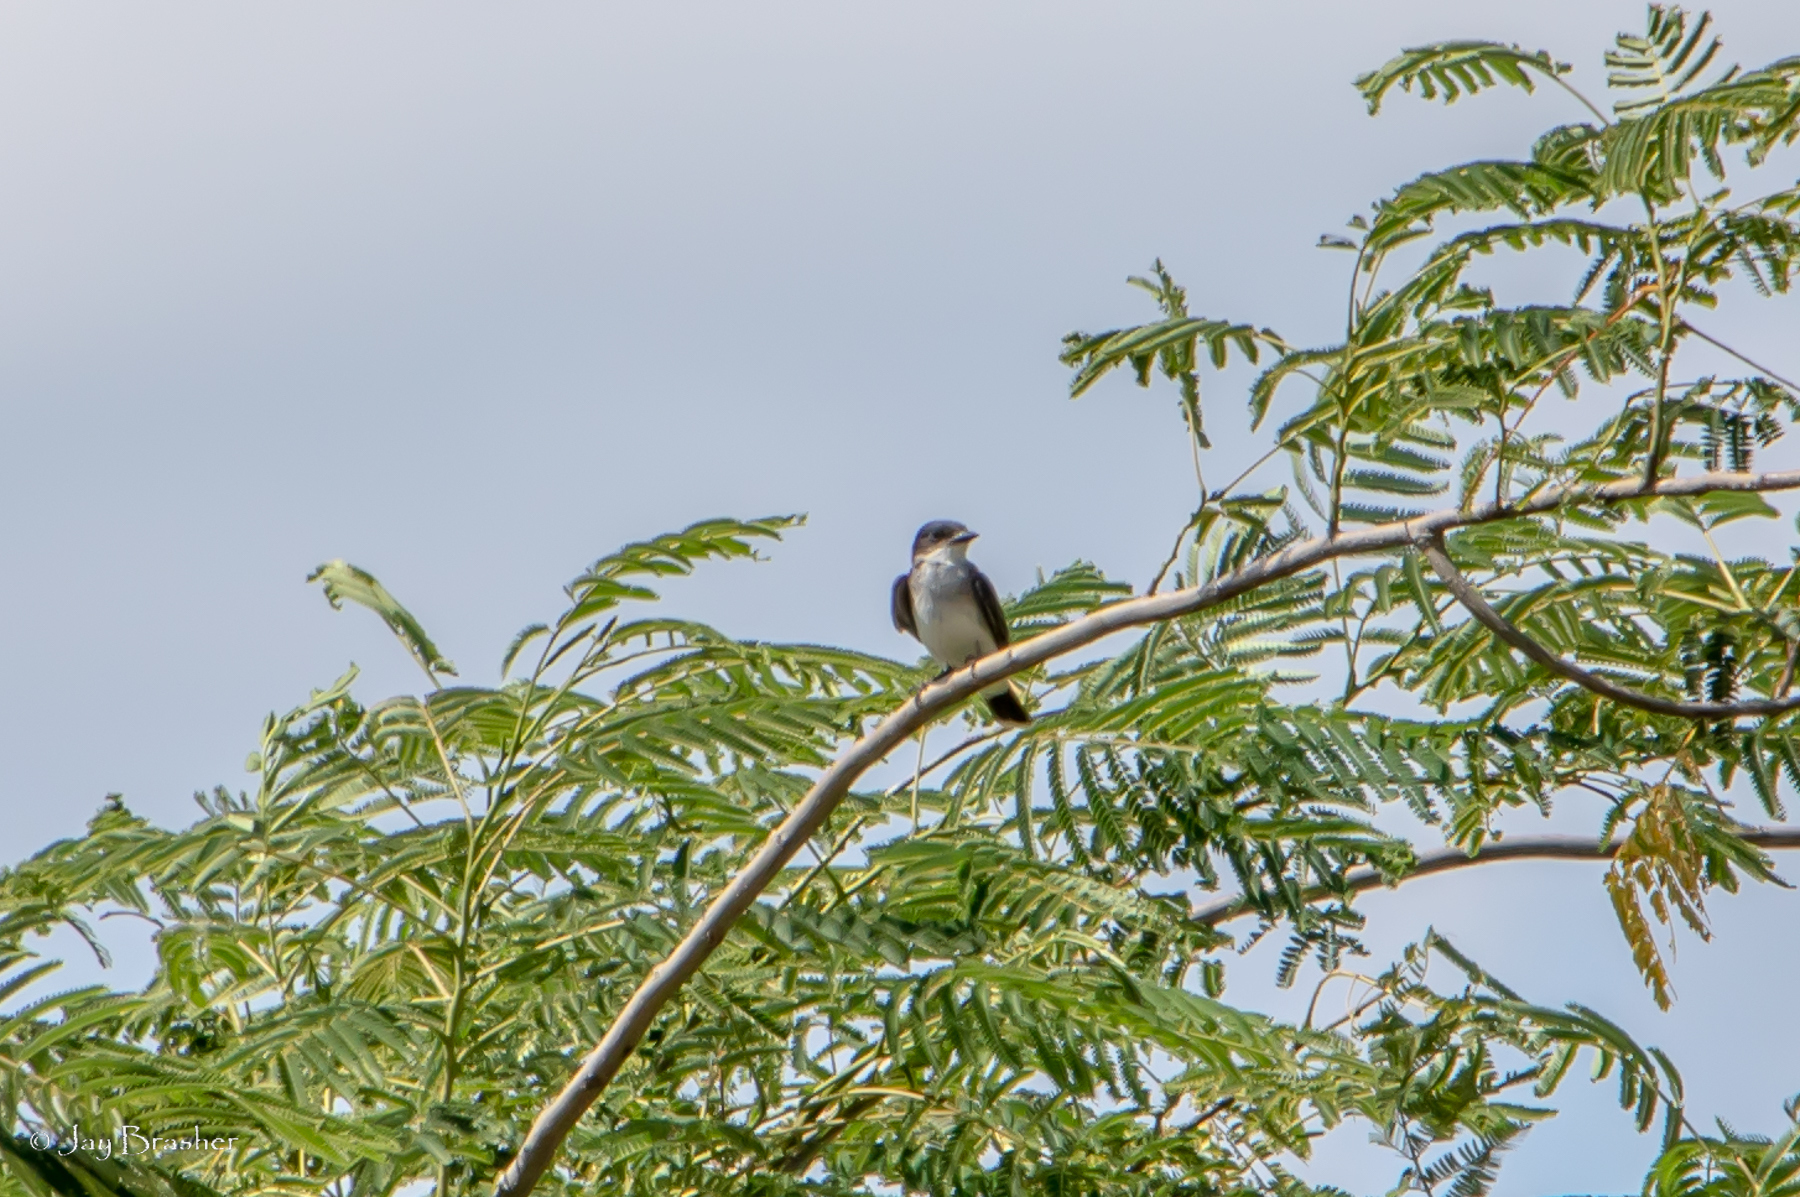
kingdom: Animalia
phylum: Chordata
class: Aves
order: Passeriformes
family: Tyrannidae
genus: Tyrannus
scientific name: Tyrannus tyrannus
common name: Eastern kingbird
